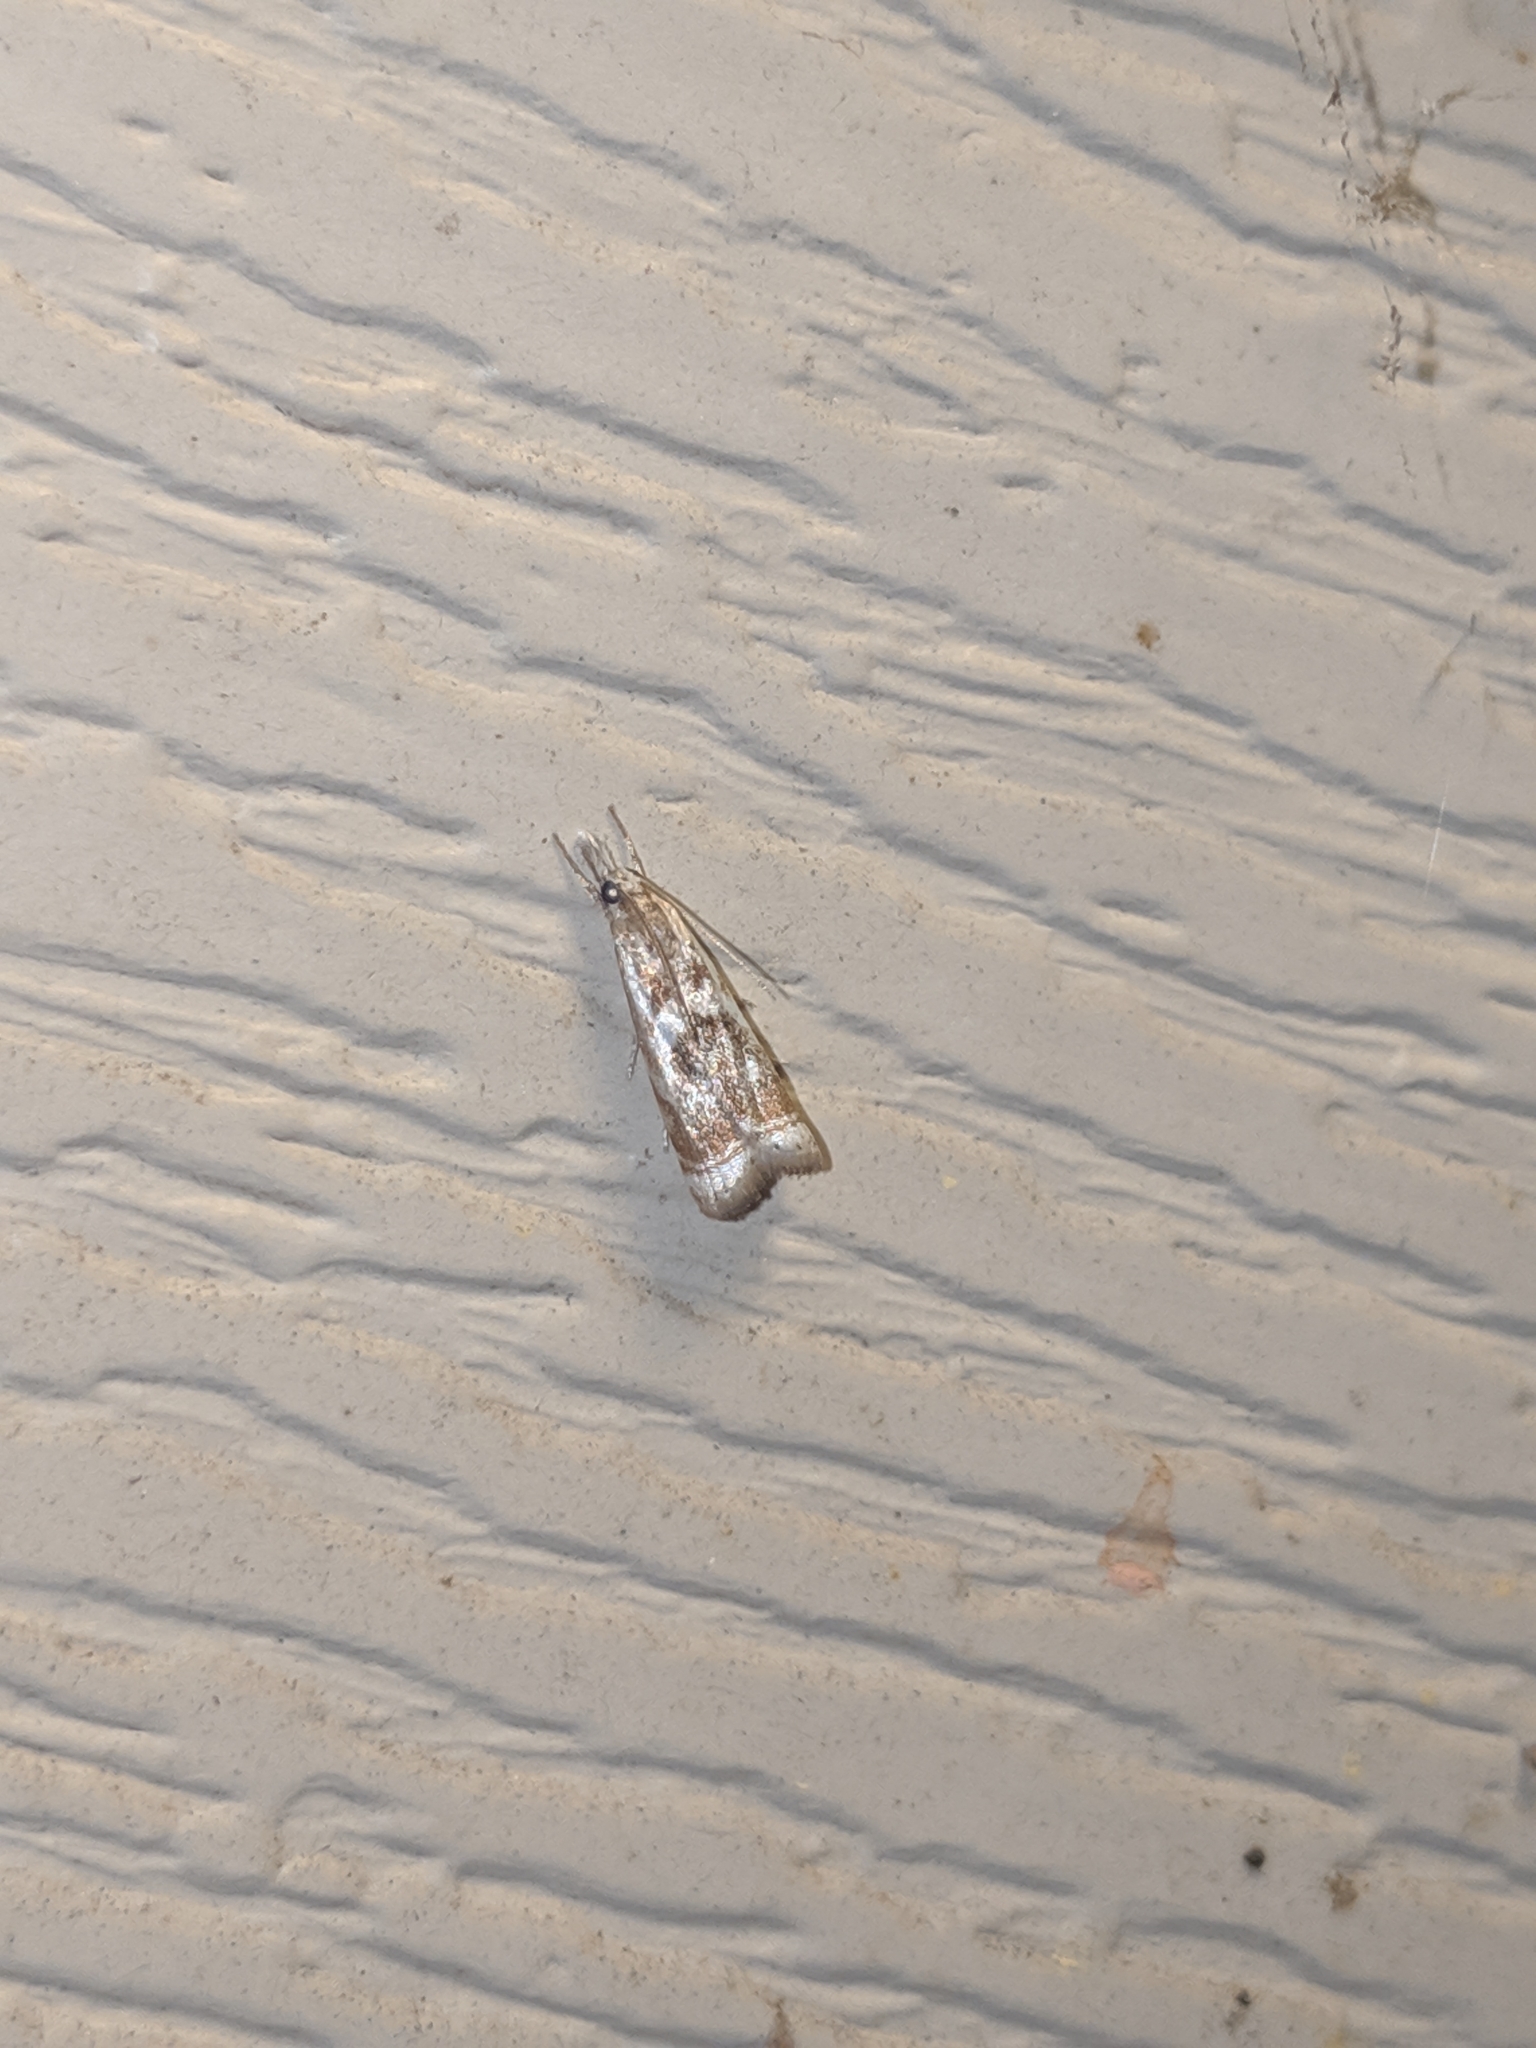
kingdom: Animalia
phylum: Arthropoda
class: Insecta
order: Lepidoptera
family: Crambidae
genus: Microcrambus
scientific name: Microcrambus elegans
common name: Elegant grass-veneer
